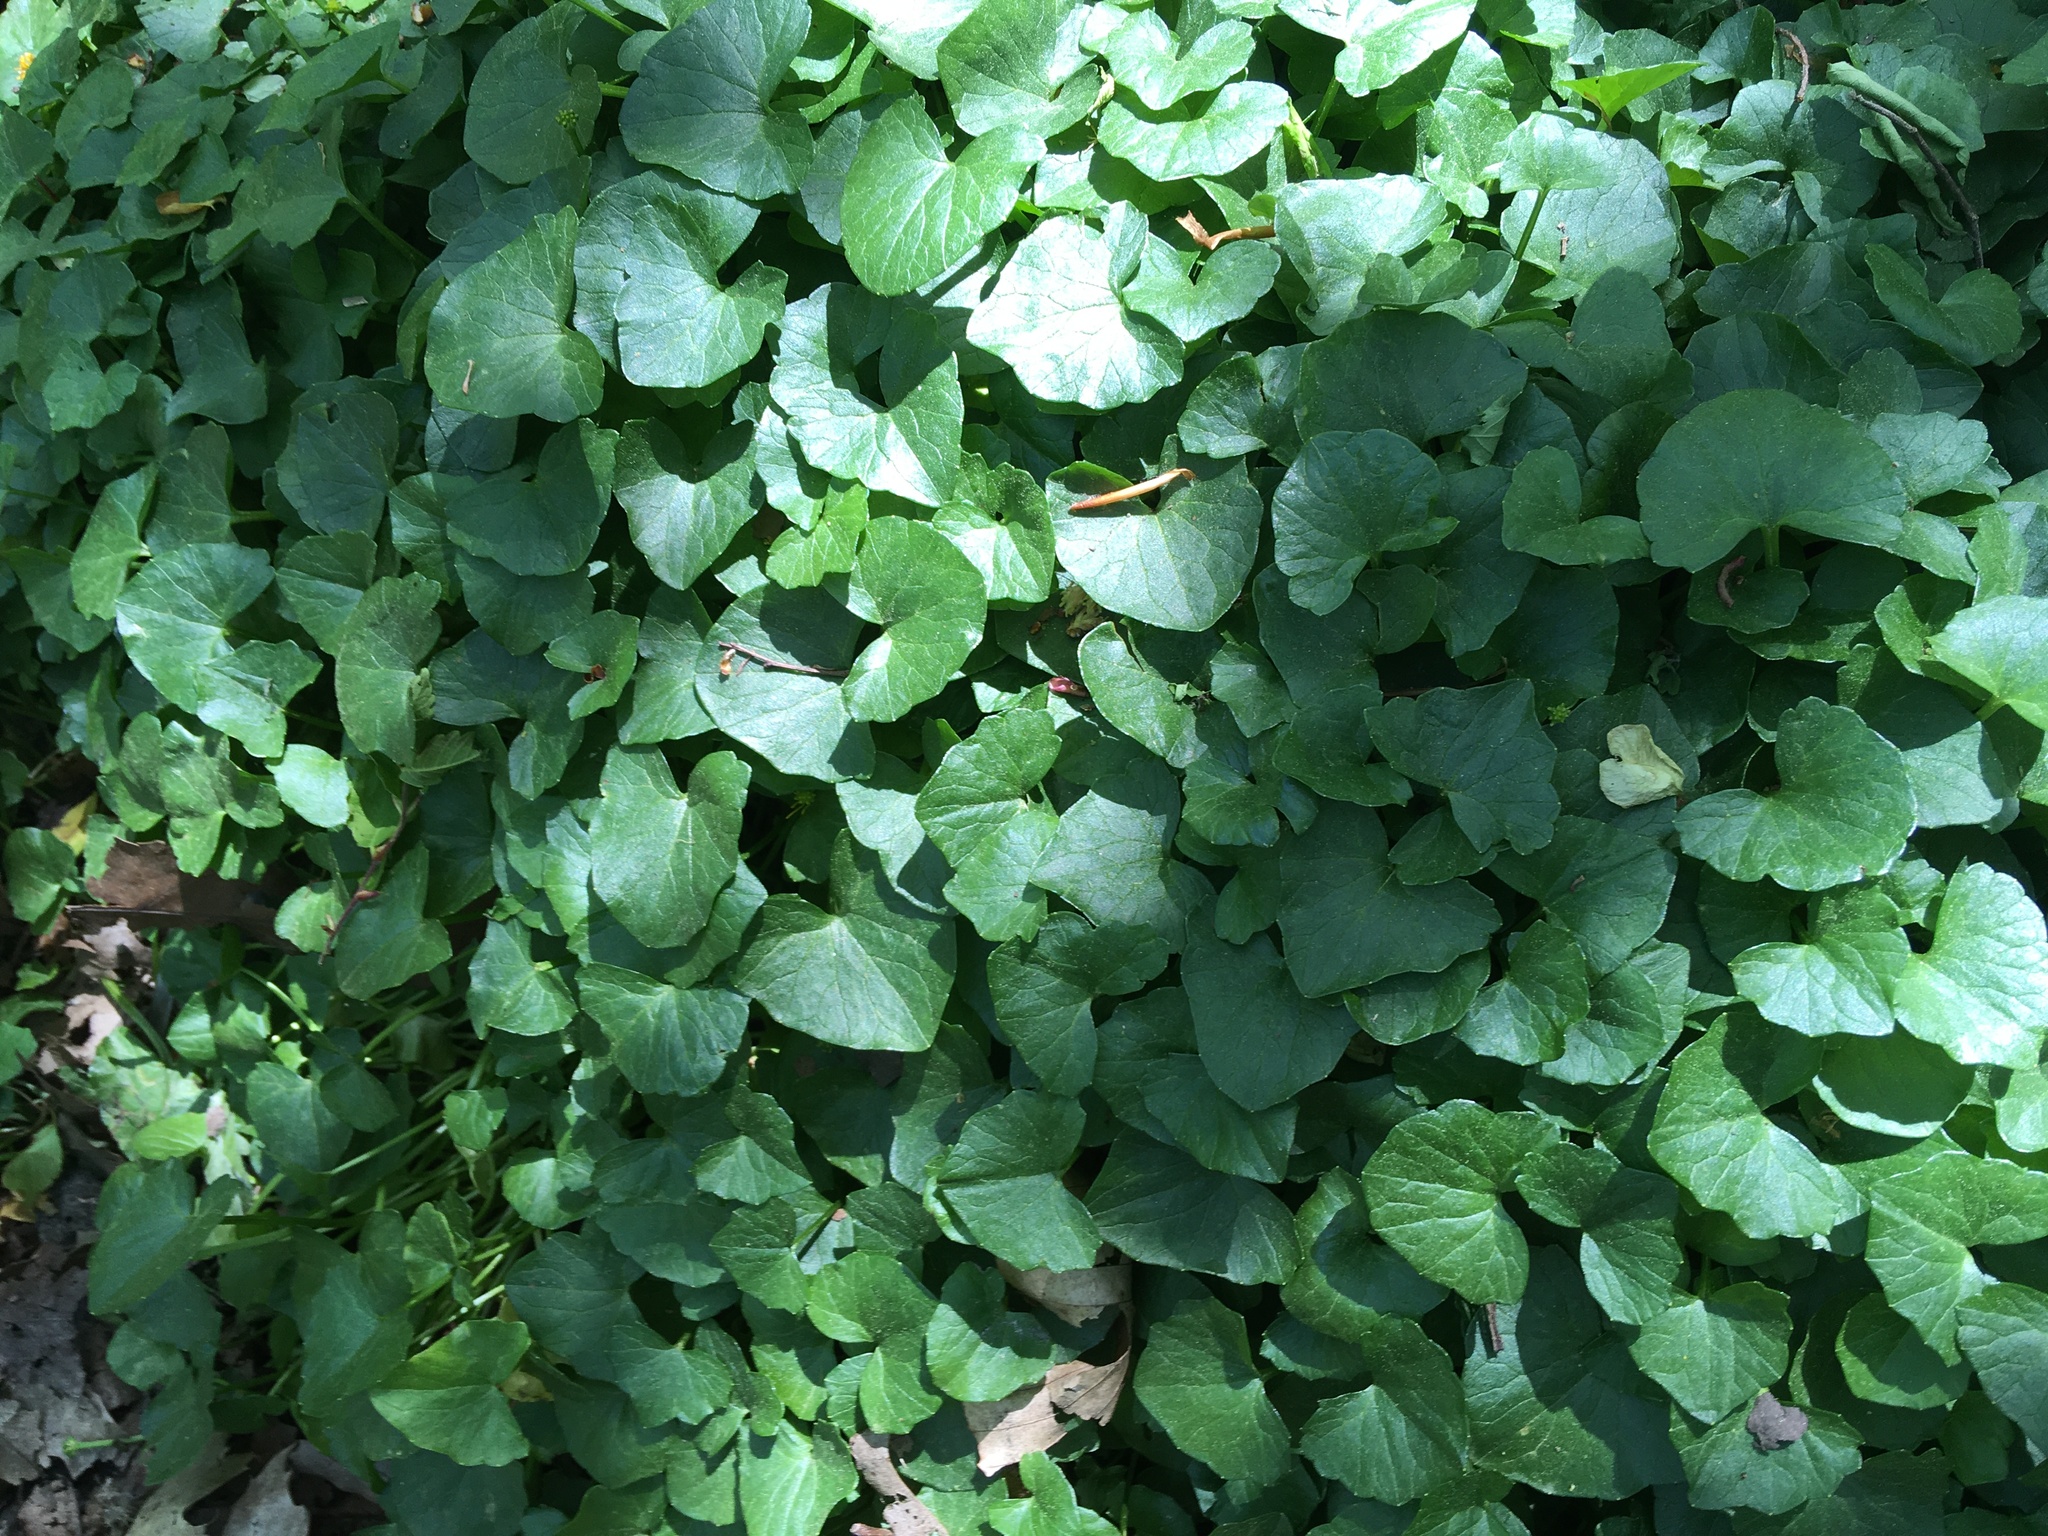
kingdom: Plantae
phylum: Tracheophyta
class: Magnoliopsida
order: Ranunculales
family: Ranunculaceae
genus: Ficaria
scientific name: Ficaria verna
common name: Lesser celandine
